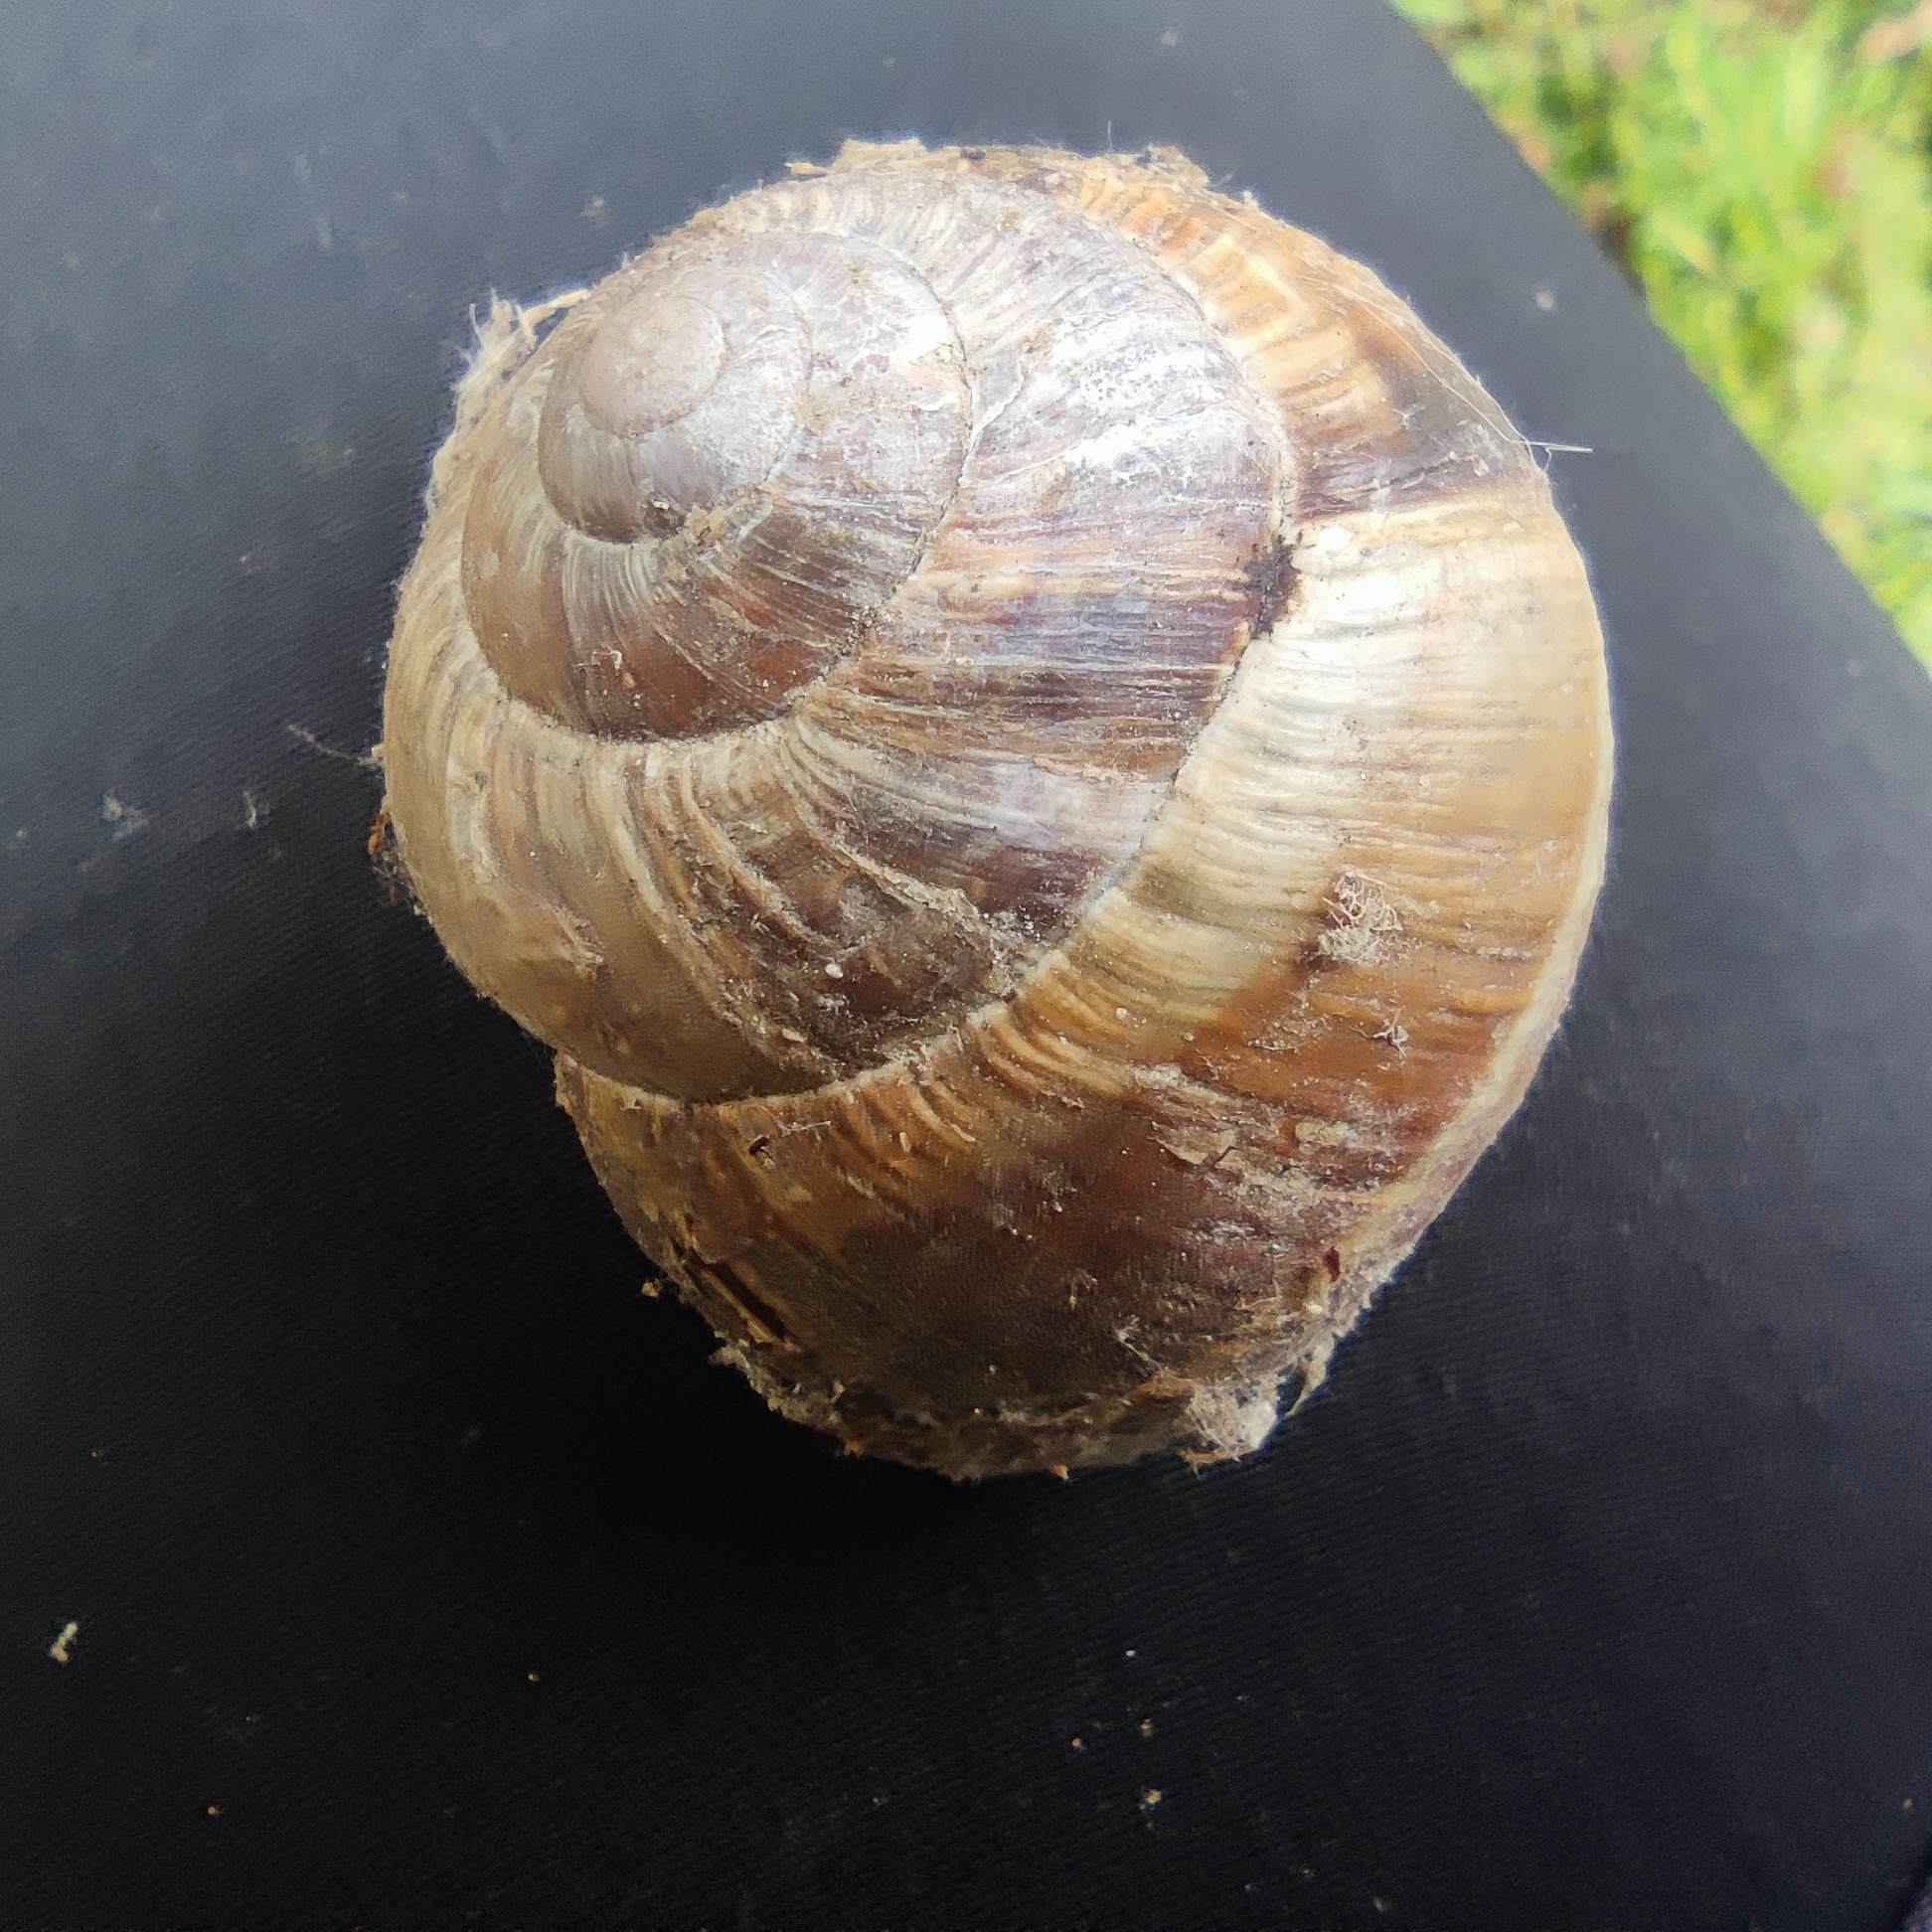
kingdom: Animalia
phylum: Mollusca
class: Gastropoda
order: Stylommatophora
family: Helicidae
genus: Helix
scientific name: Helix lucorum
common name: Turkish snail
